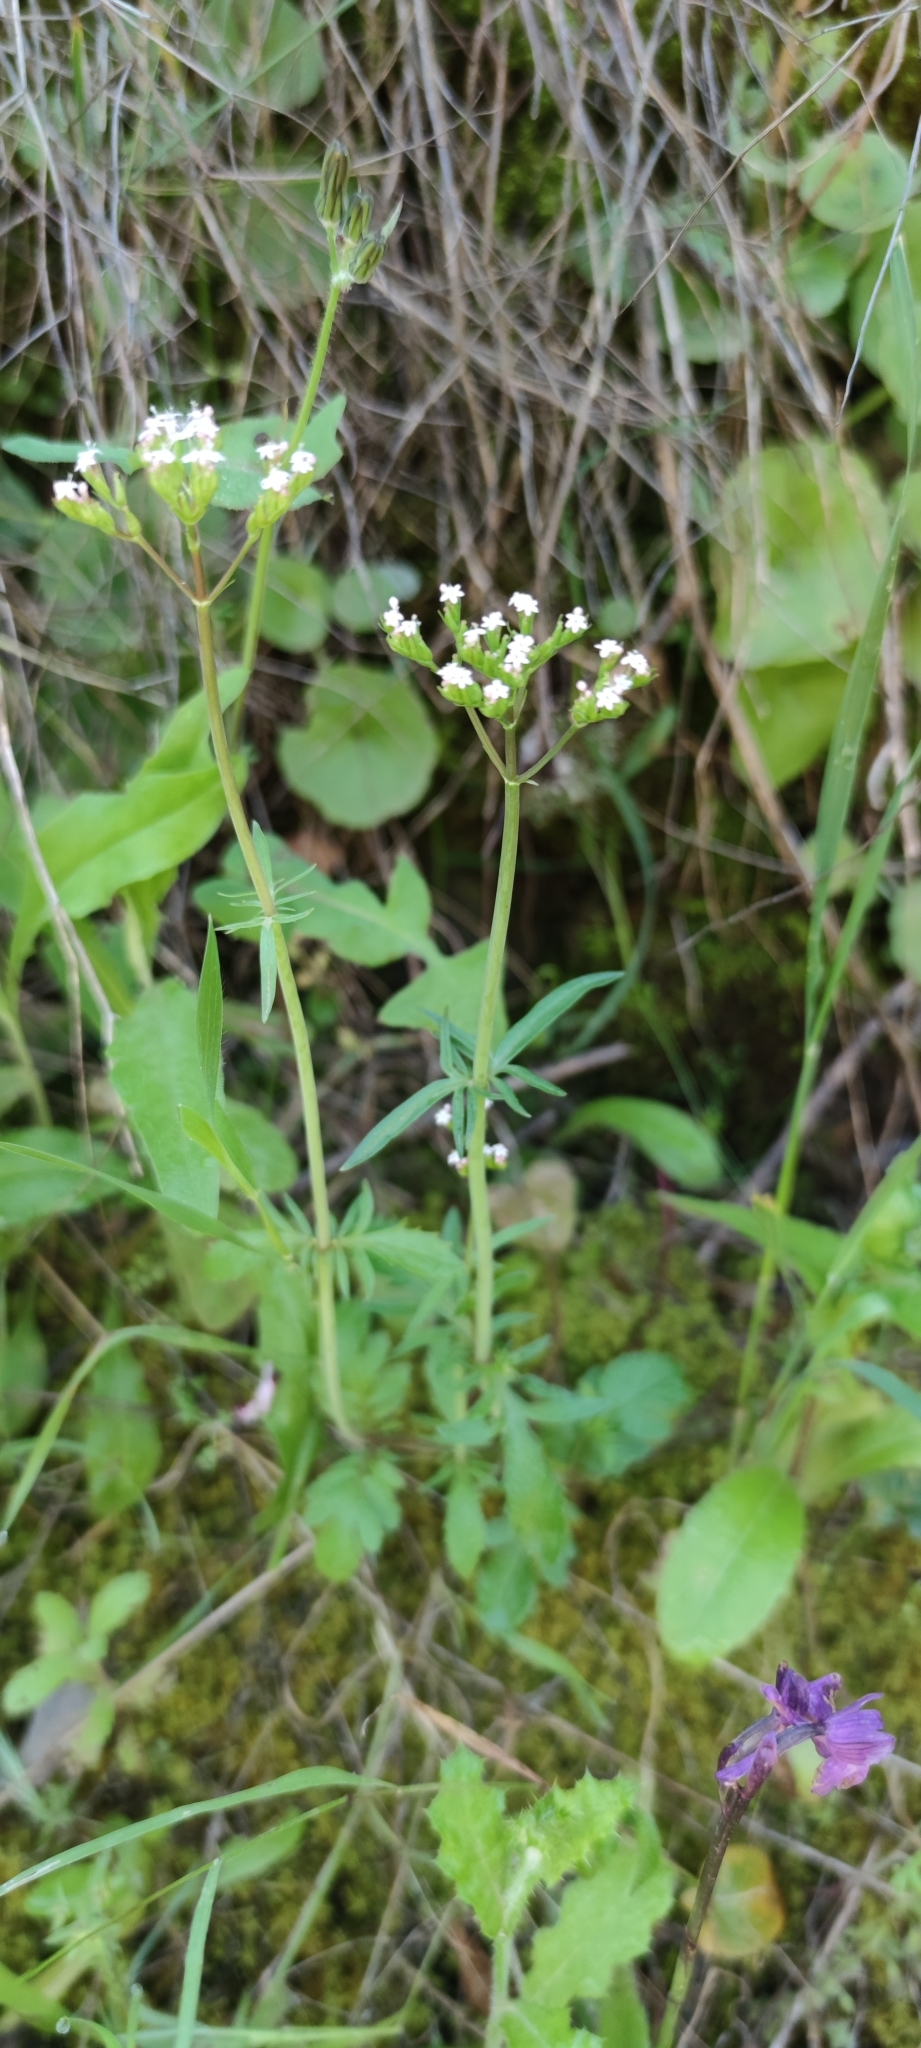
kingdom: Plantae
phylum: Tracheophyta
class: Magnoliopsida
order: Dipsacales
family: Caprifoliaceae
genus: Centranthus
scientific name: Centranthus calcitrapae
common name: Annual valerian
